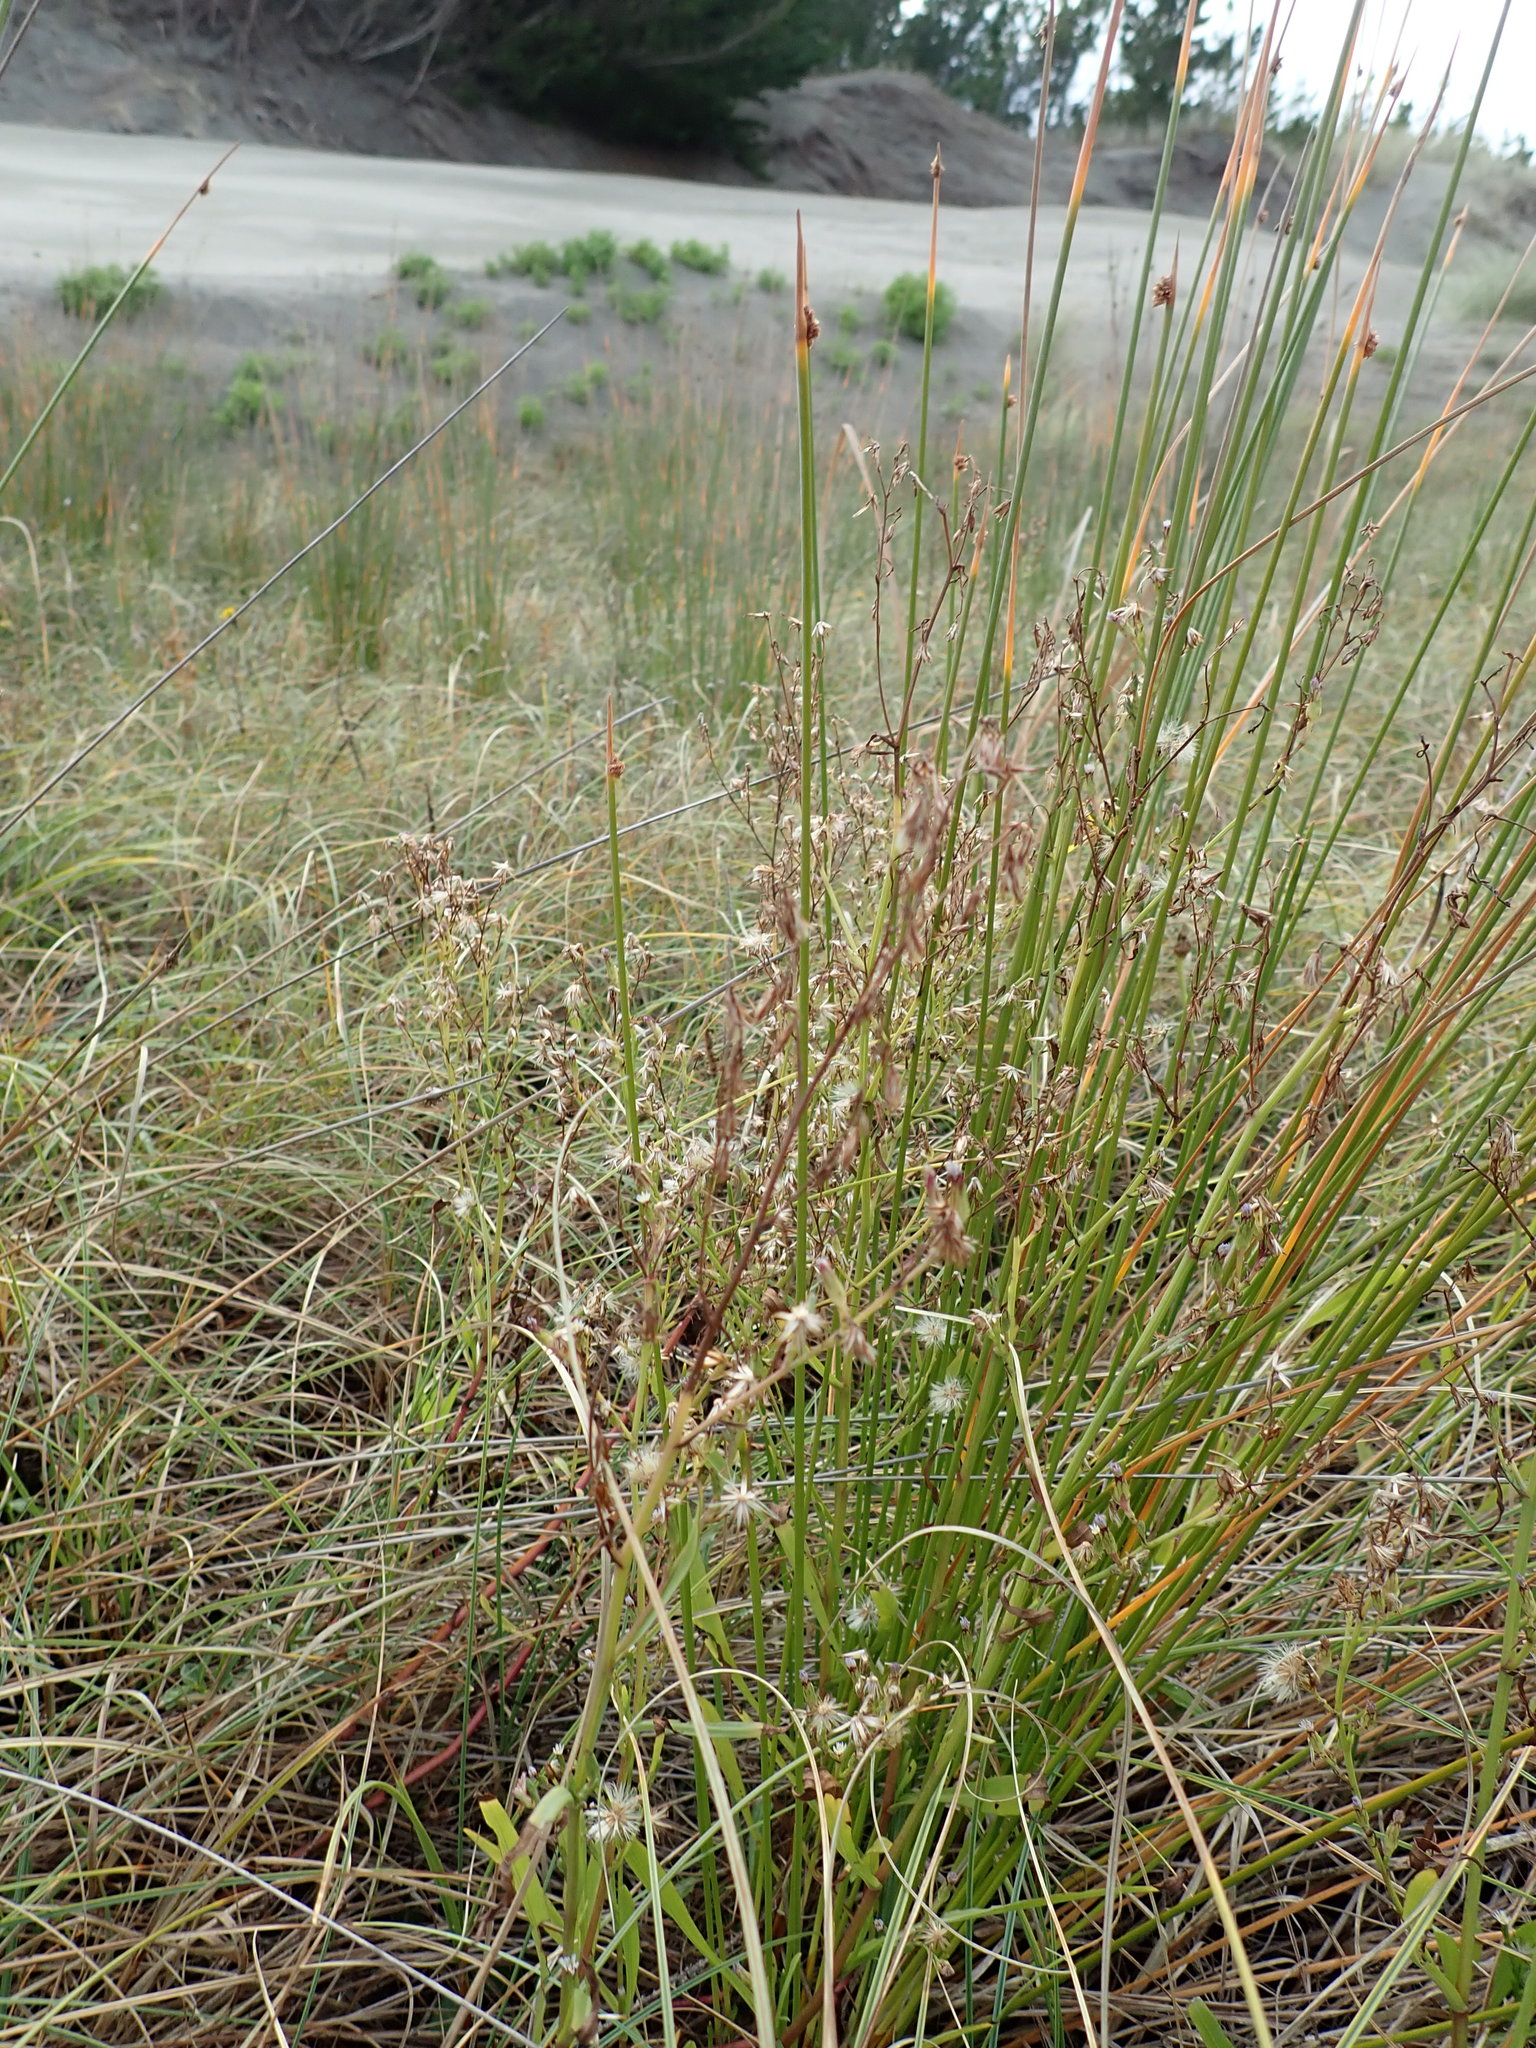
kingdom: Plantae
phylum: Tracheophyta
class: Magnoliopsida
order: Asterales
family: Asteraceae
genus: Symphyotrichum
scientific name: Symphyotrichum subulatum
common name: Annual saltmarsh aster
